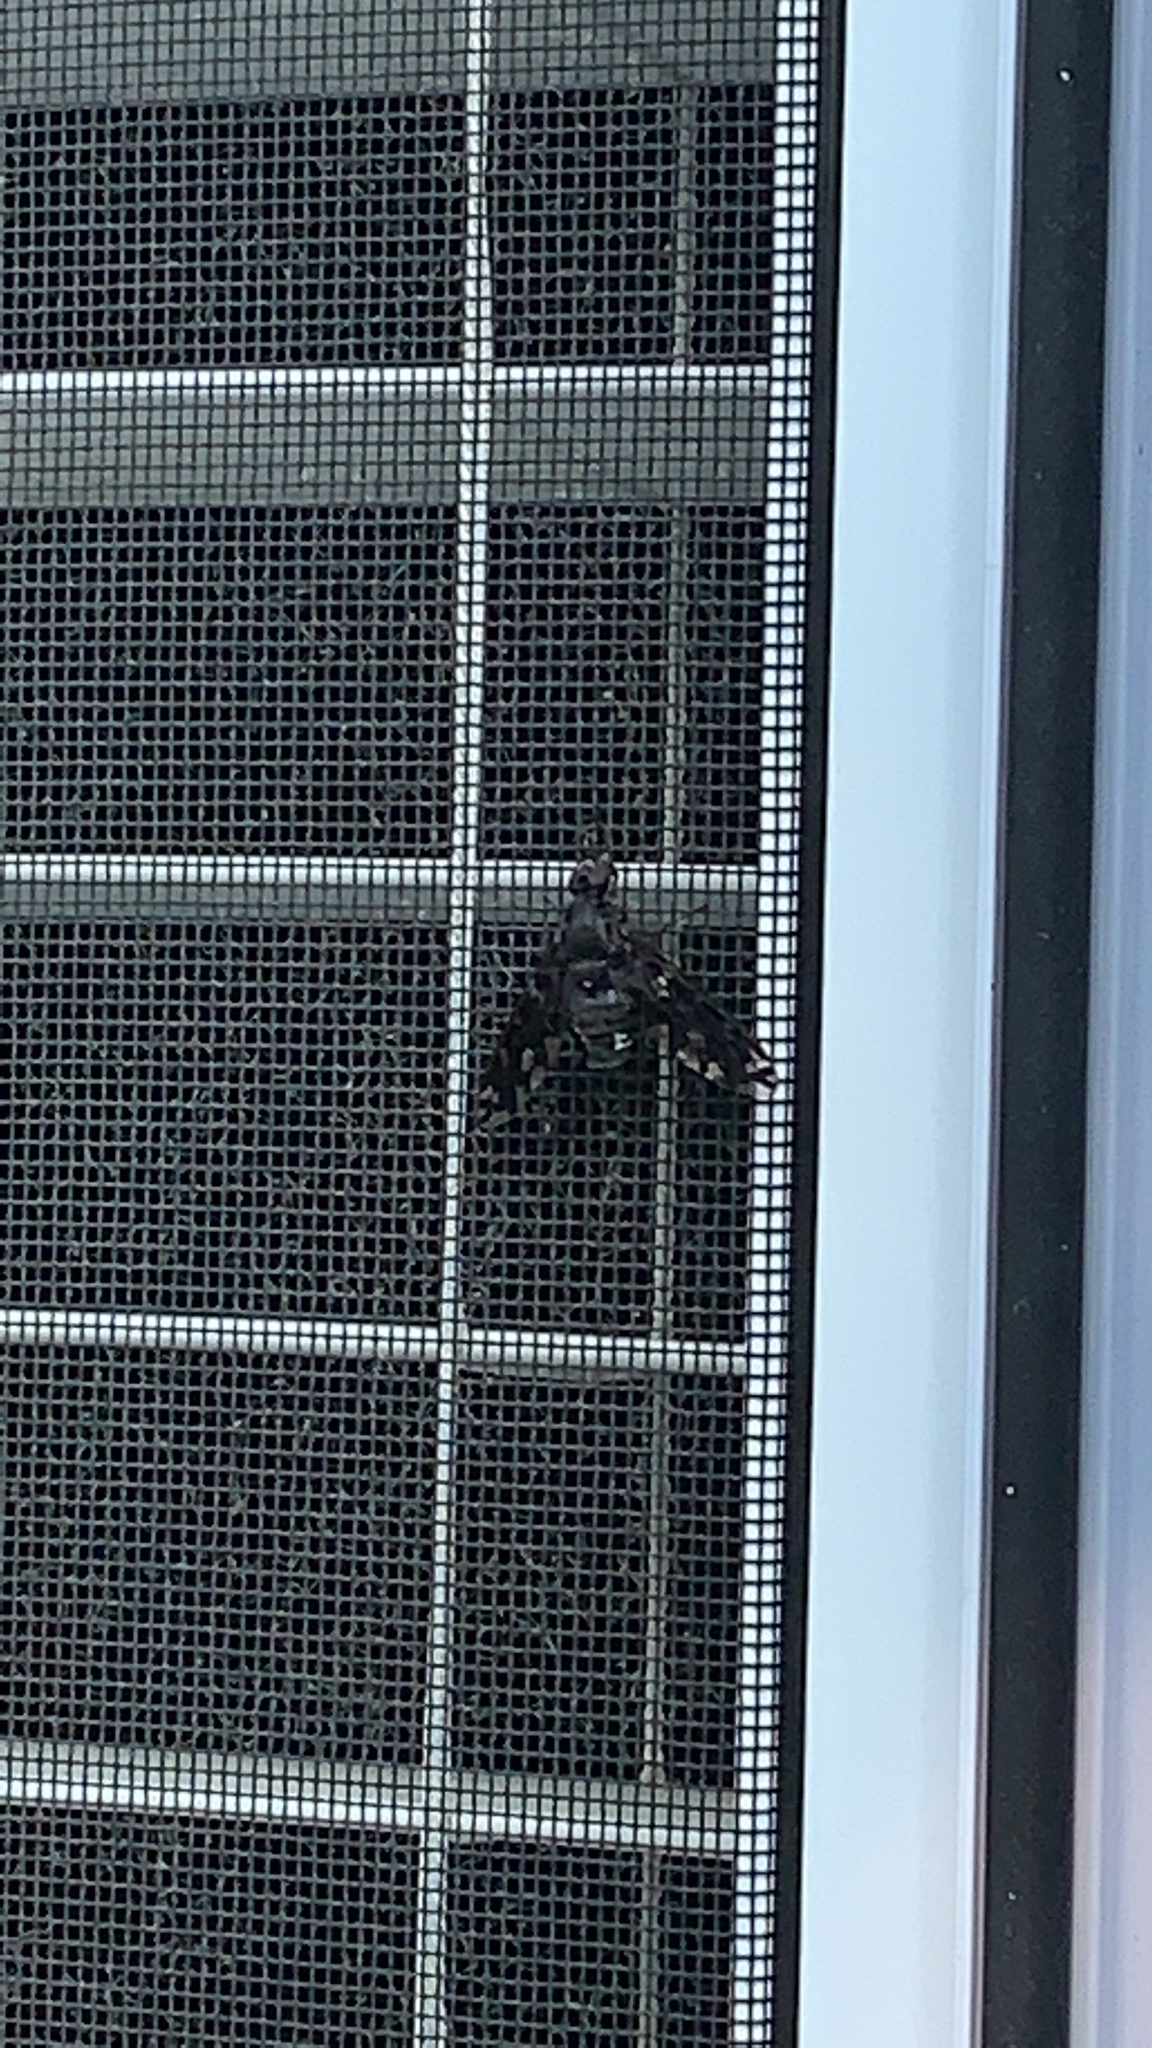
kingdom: Animalia
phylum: Arthropoda
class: Insecta
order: Diptera
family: Bombyliidae
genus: Xenox
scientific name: Xenox tigrinus
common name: Tiger bee fly
